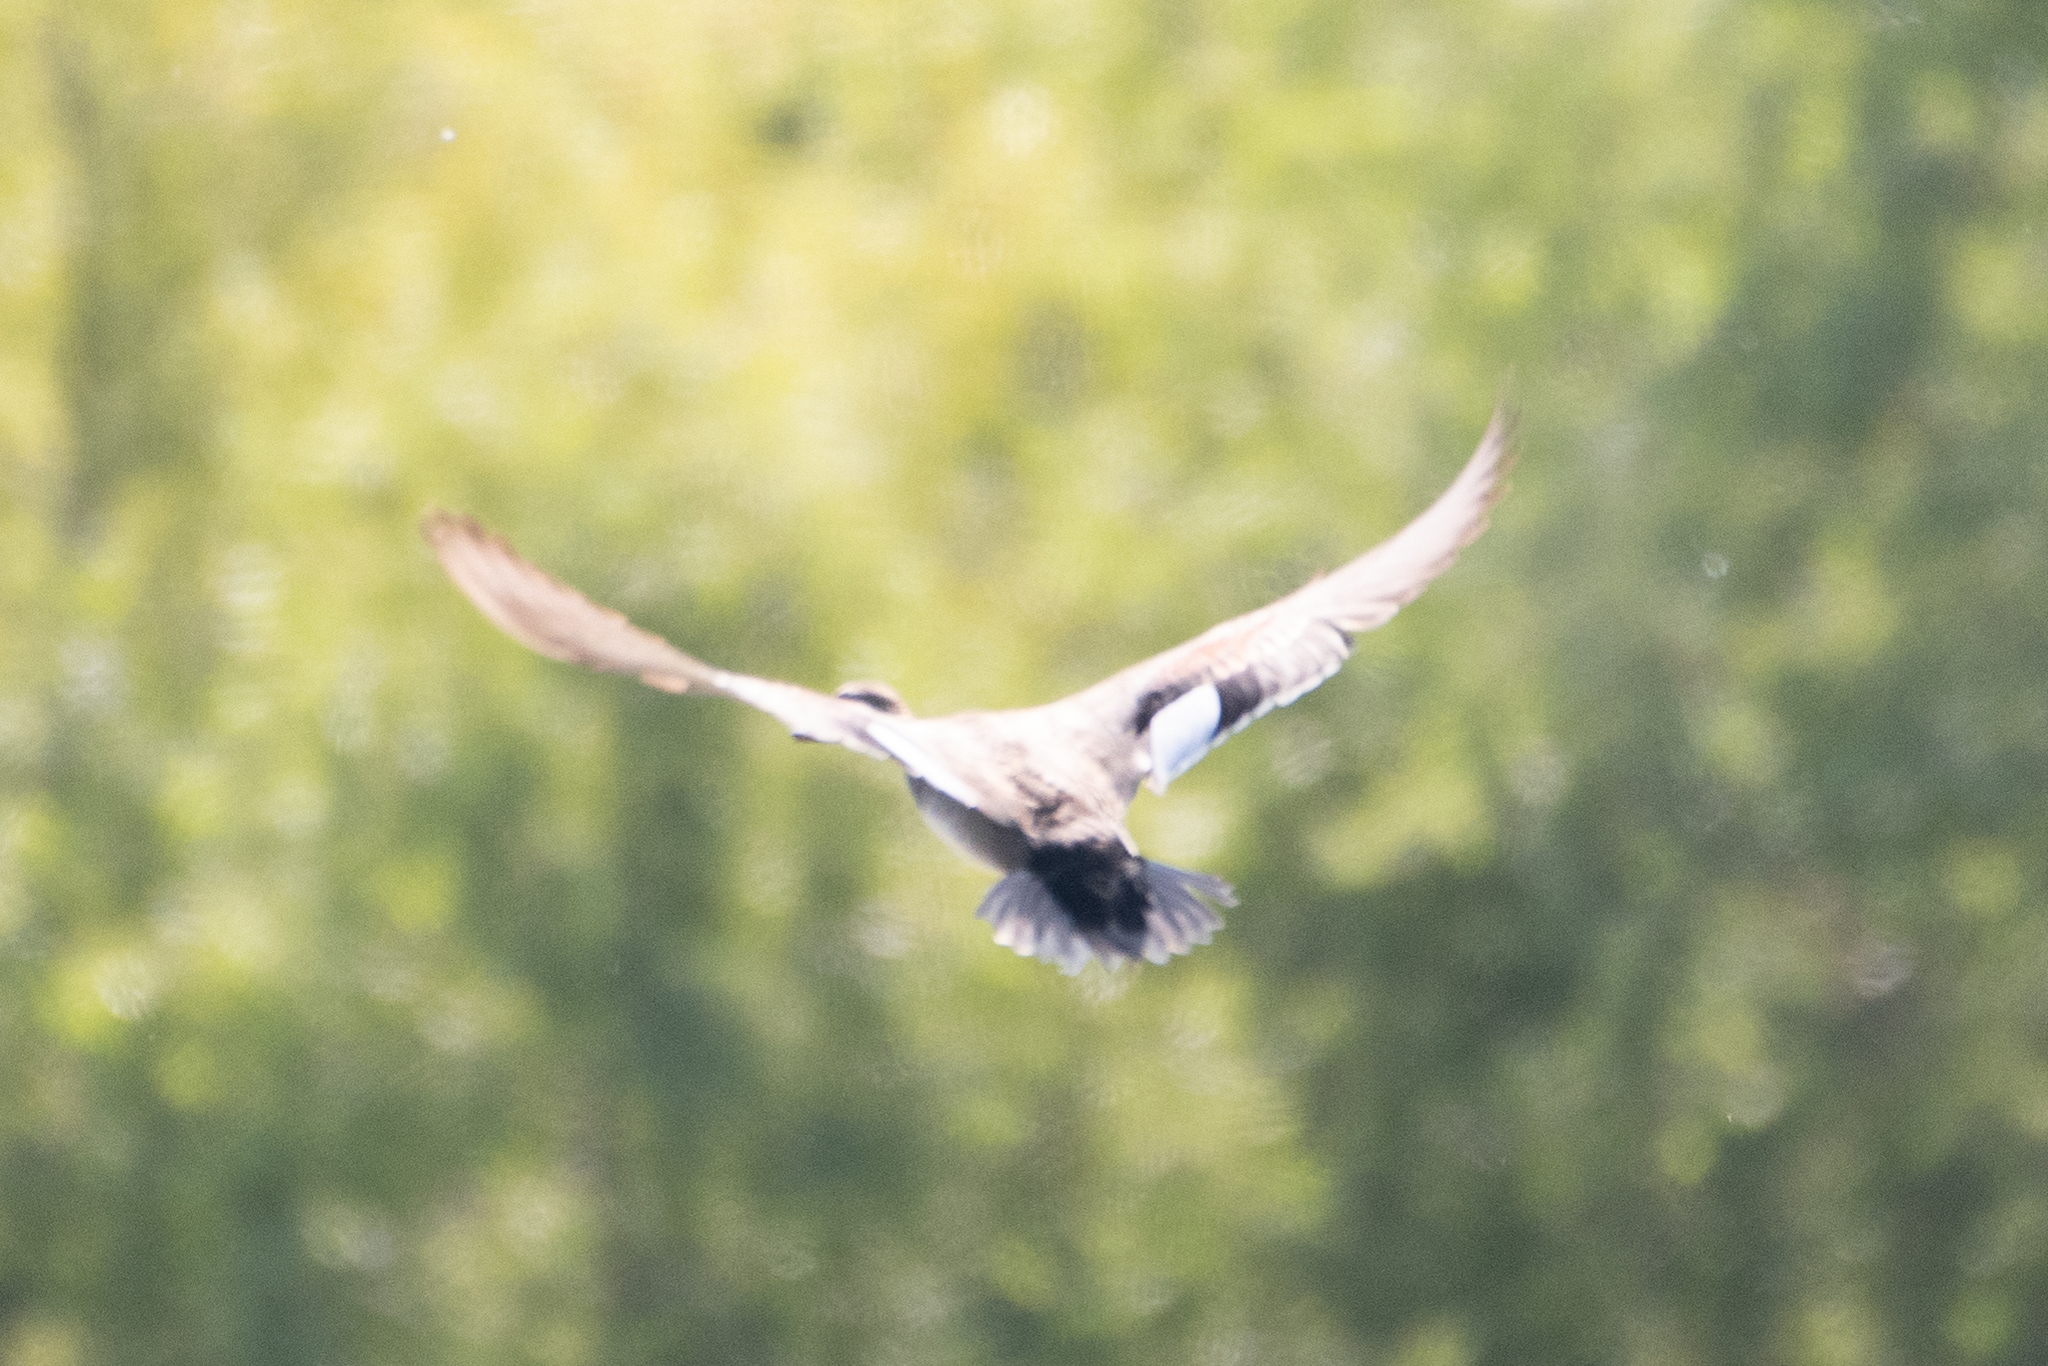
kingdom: Animalia
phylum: Chordata
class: Aves
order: Anseriformes
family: Anatidae
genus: Mareca
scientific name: Mareca strepera
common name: Gadwall
